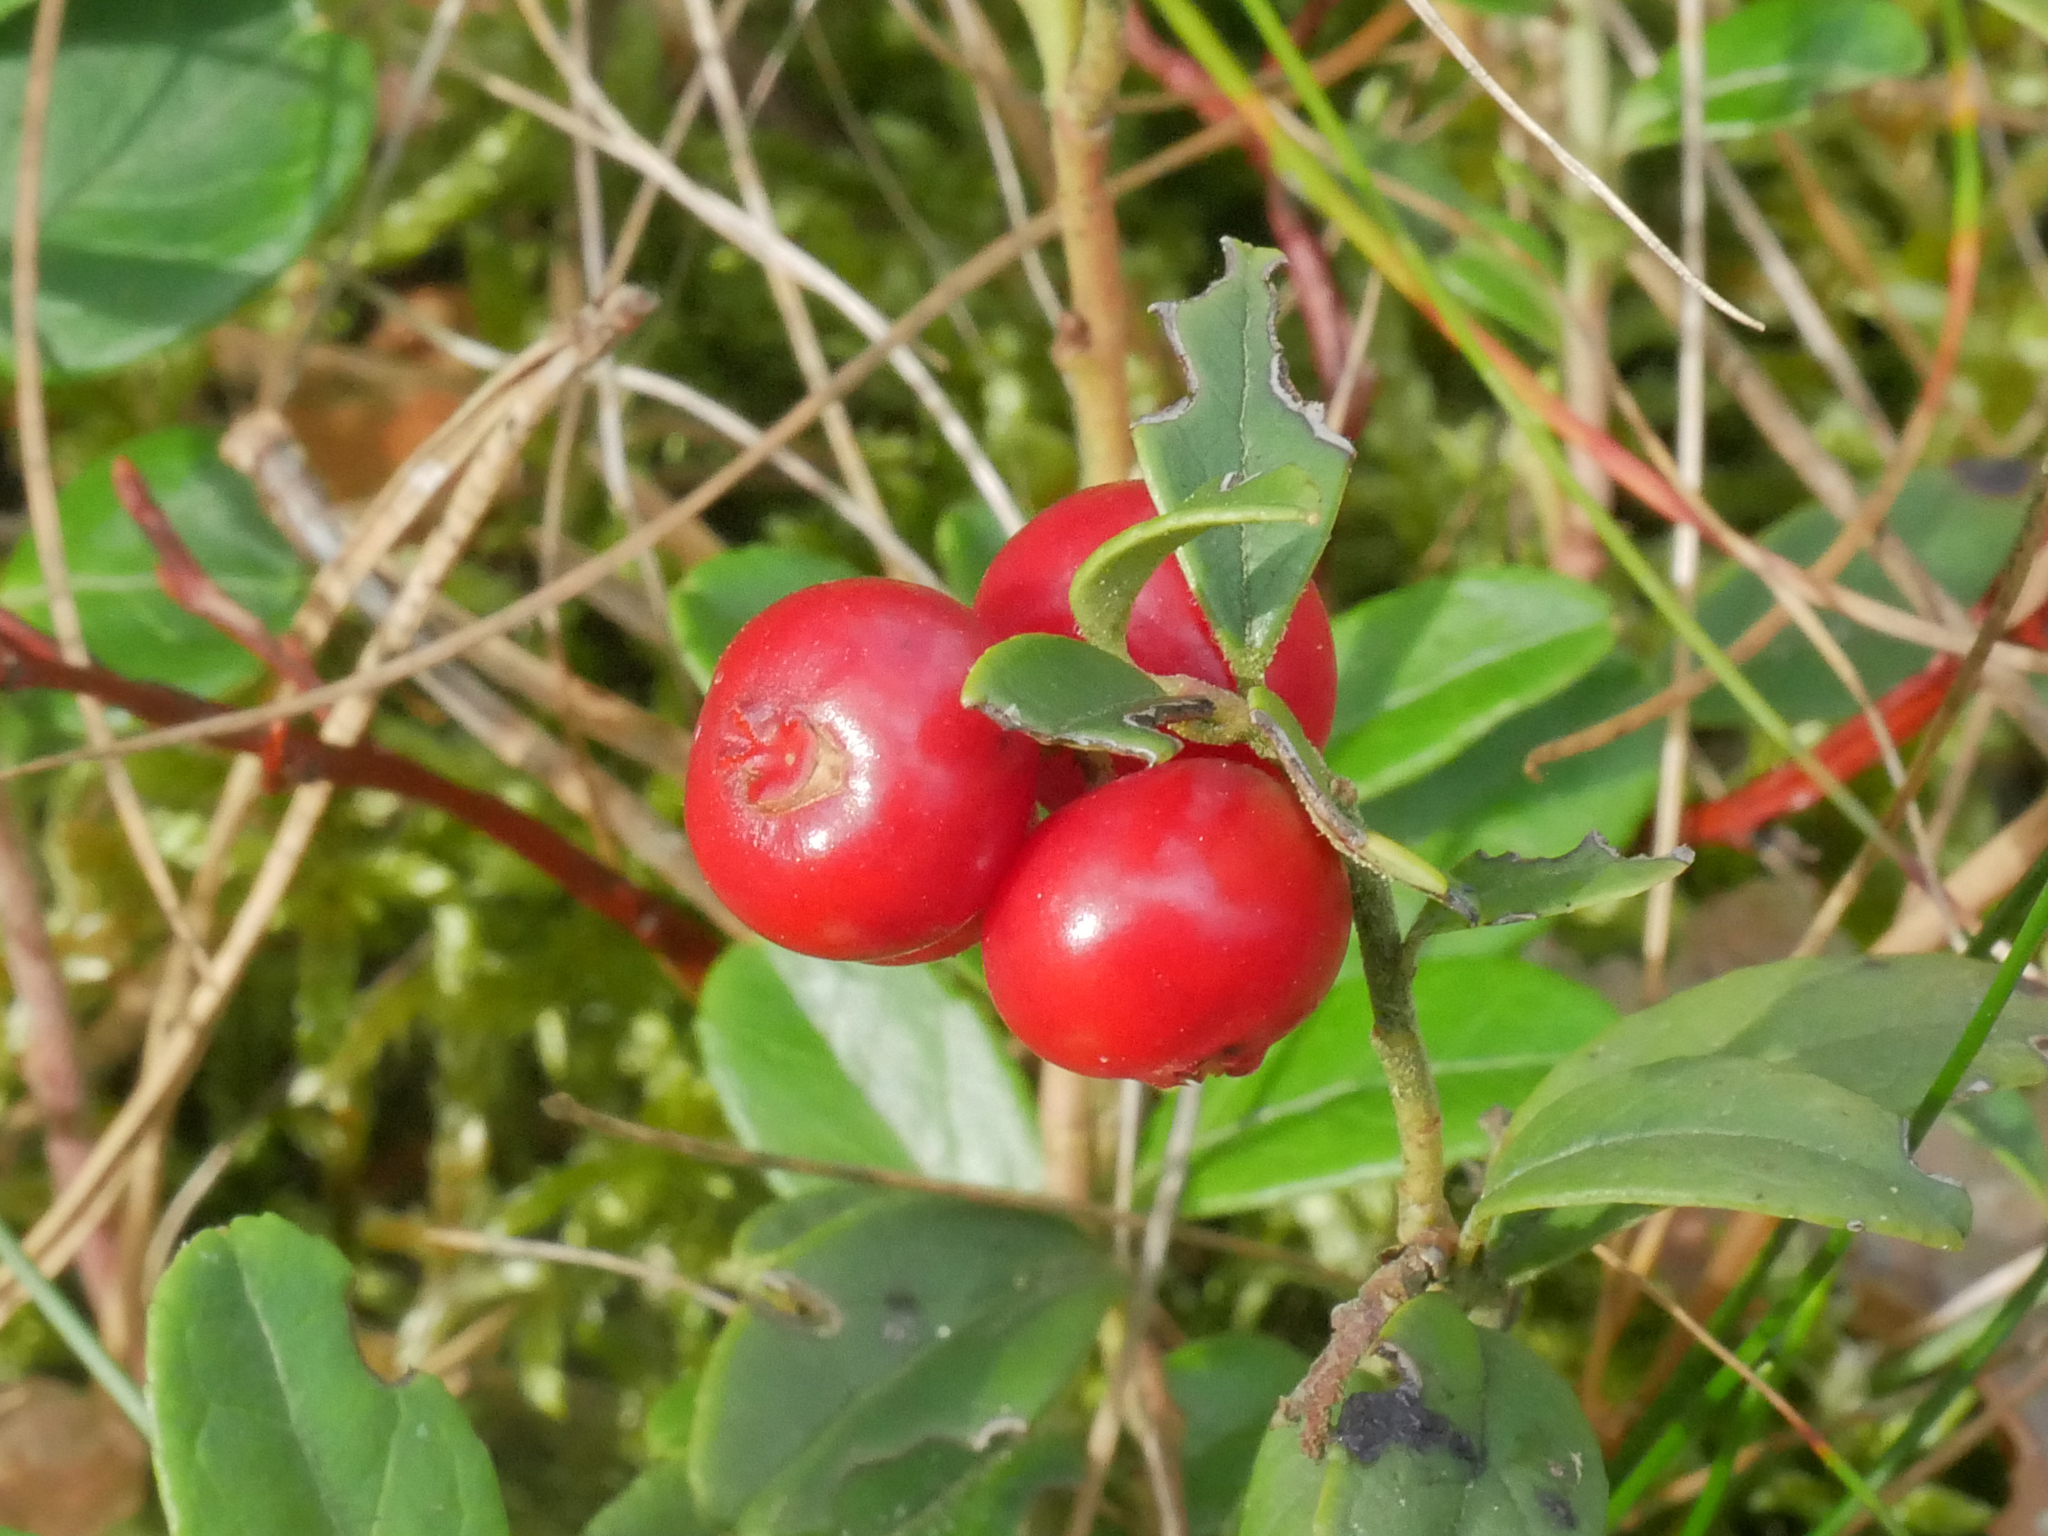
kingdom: Plantae
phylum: Tracheophyta
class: Magnoliopsida
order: Ericales
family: Ericaceae
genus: Vaccinium
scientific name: Vaccinium vitis-idaea
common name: Cowberry
